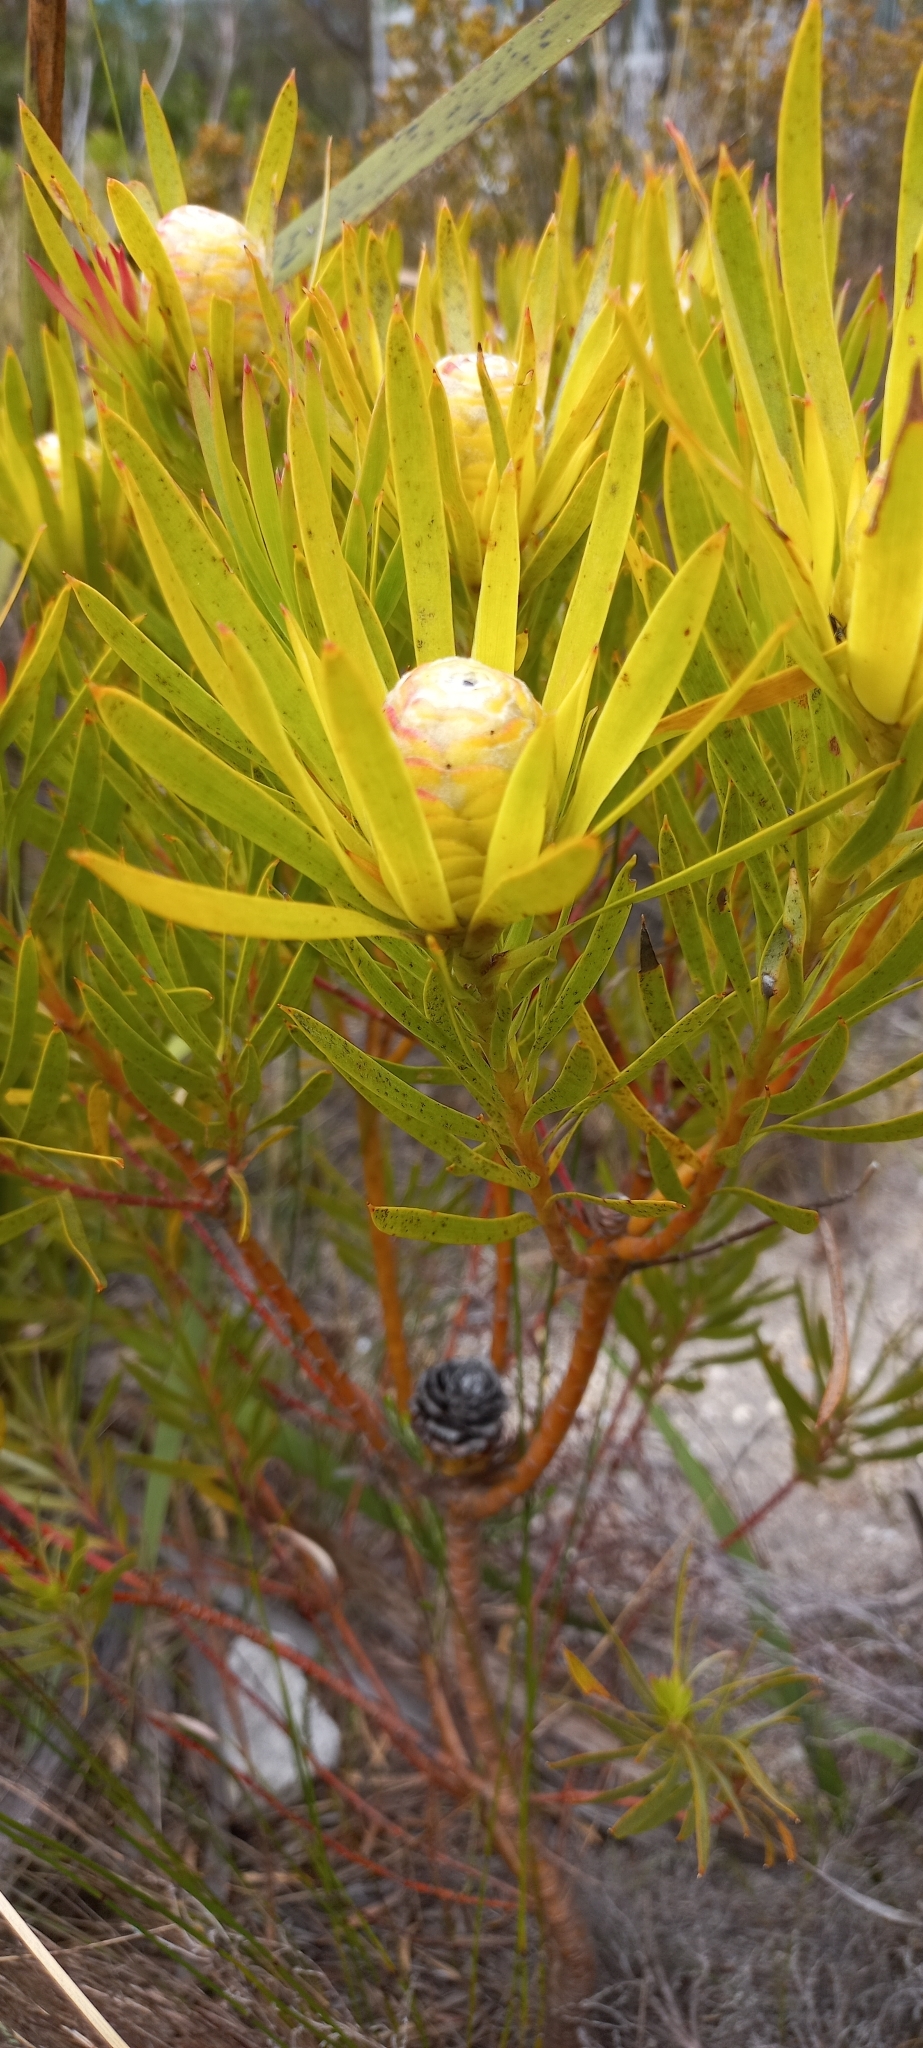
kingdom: Plantae
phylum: Tracheophyta
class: Magnoliopsida
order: Proteales
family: Proteaceae
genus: Leucadendron
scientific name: Leucadendron xanthoconus
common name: Sickle-leaf conebush
